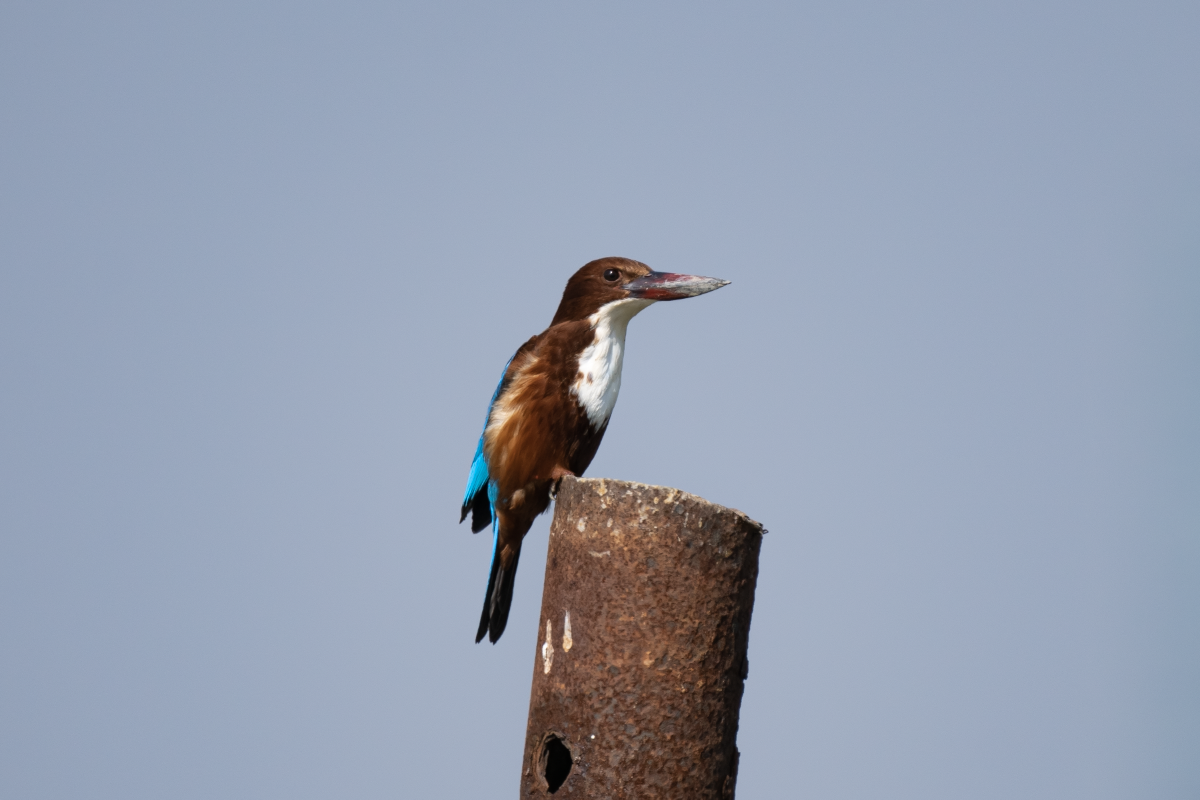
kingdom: Animalia
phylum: Chordata
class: Aves
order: Coraciiformes
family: Alcedinidae
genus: Halcyon
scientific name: Halcyon smyrnensis
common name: White-throated kingfisher
